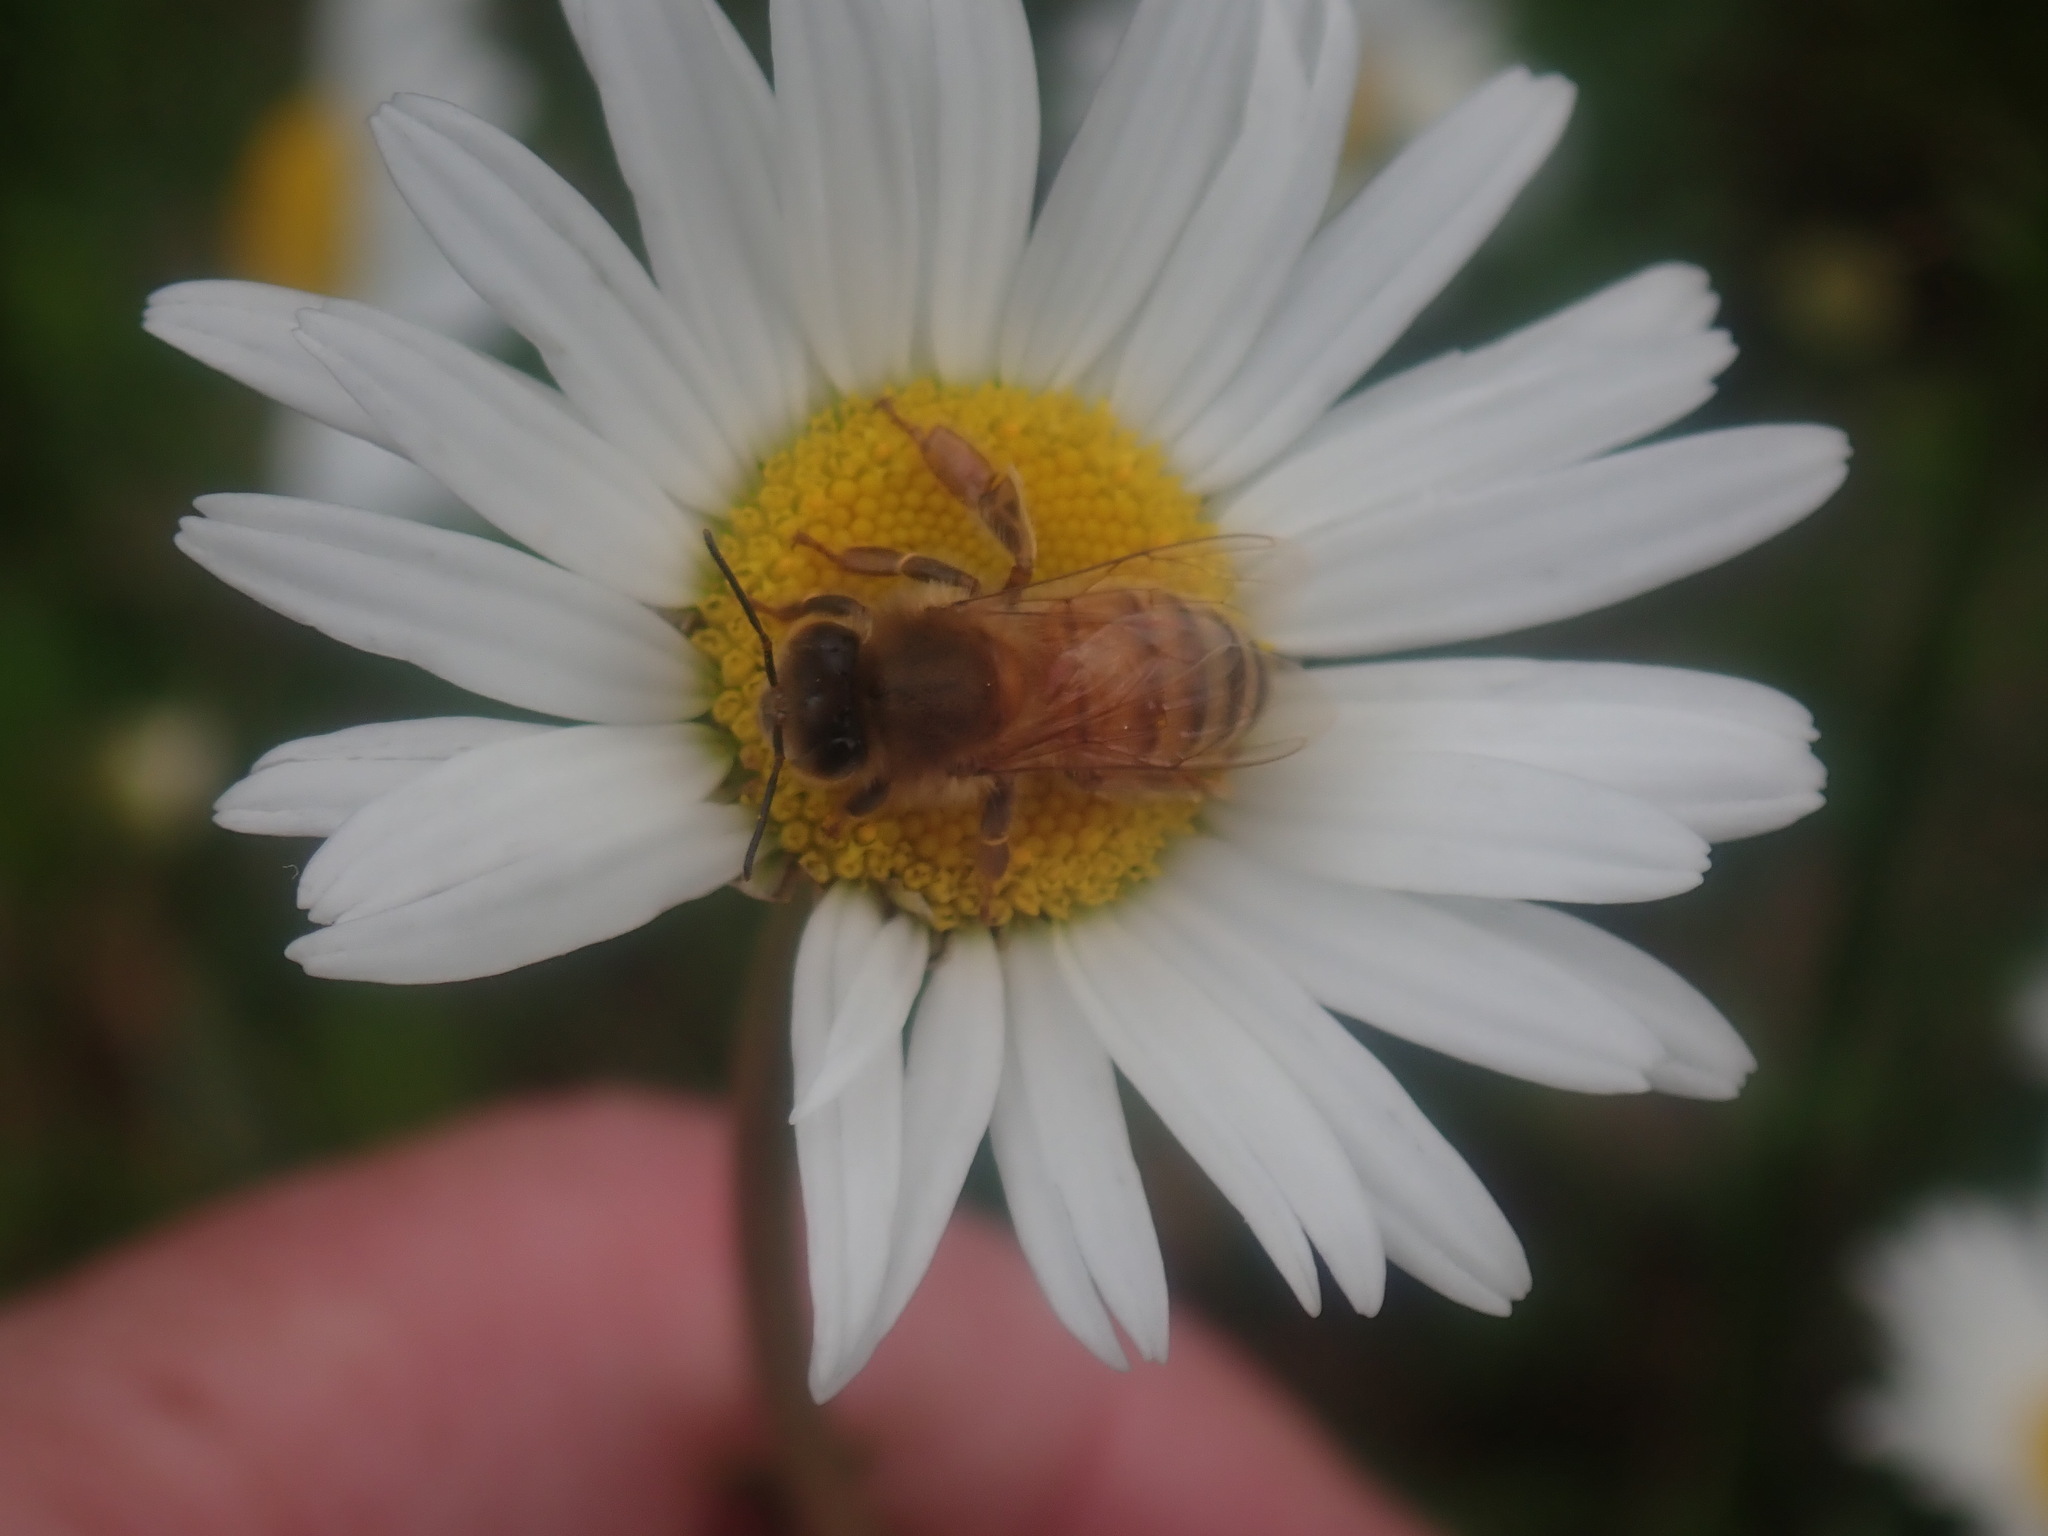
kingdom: Animalia
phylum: Arthropoda
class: Insecta
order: Hymenoptera
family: Apidae
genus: Apis
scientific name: Apis mellifera
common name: Honey bee
